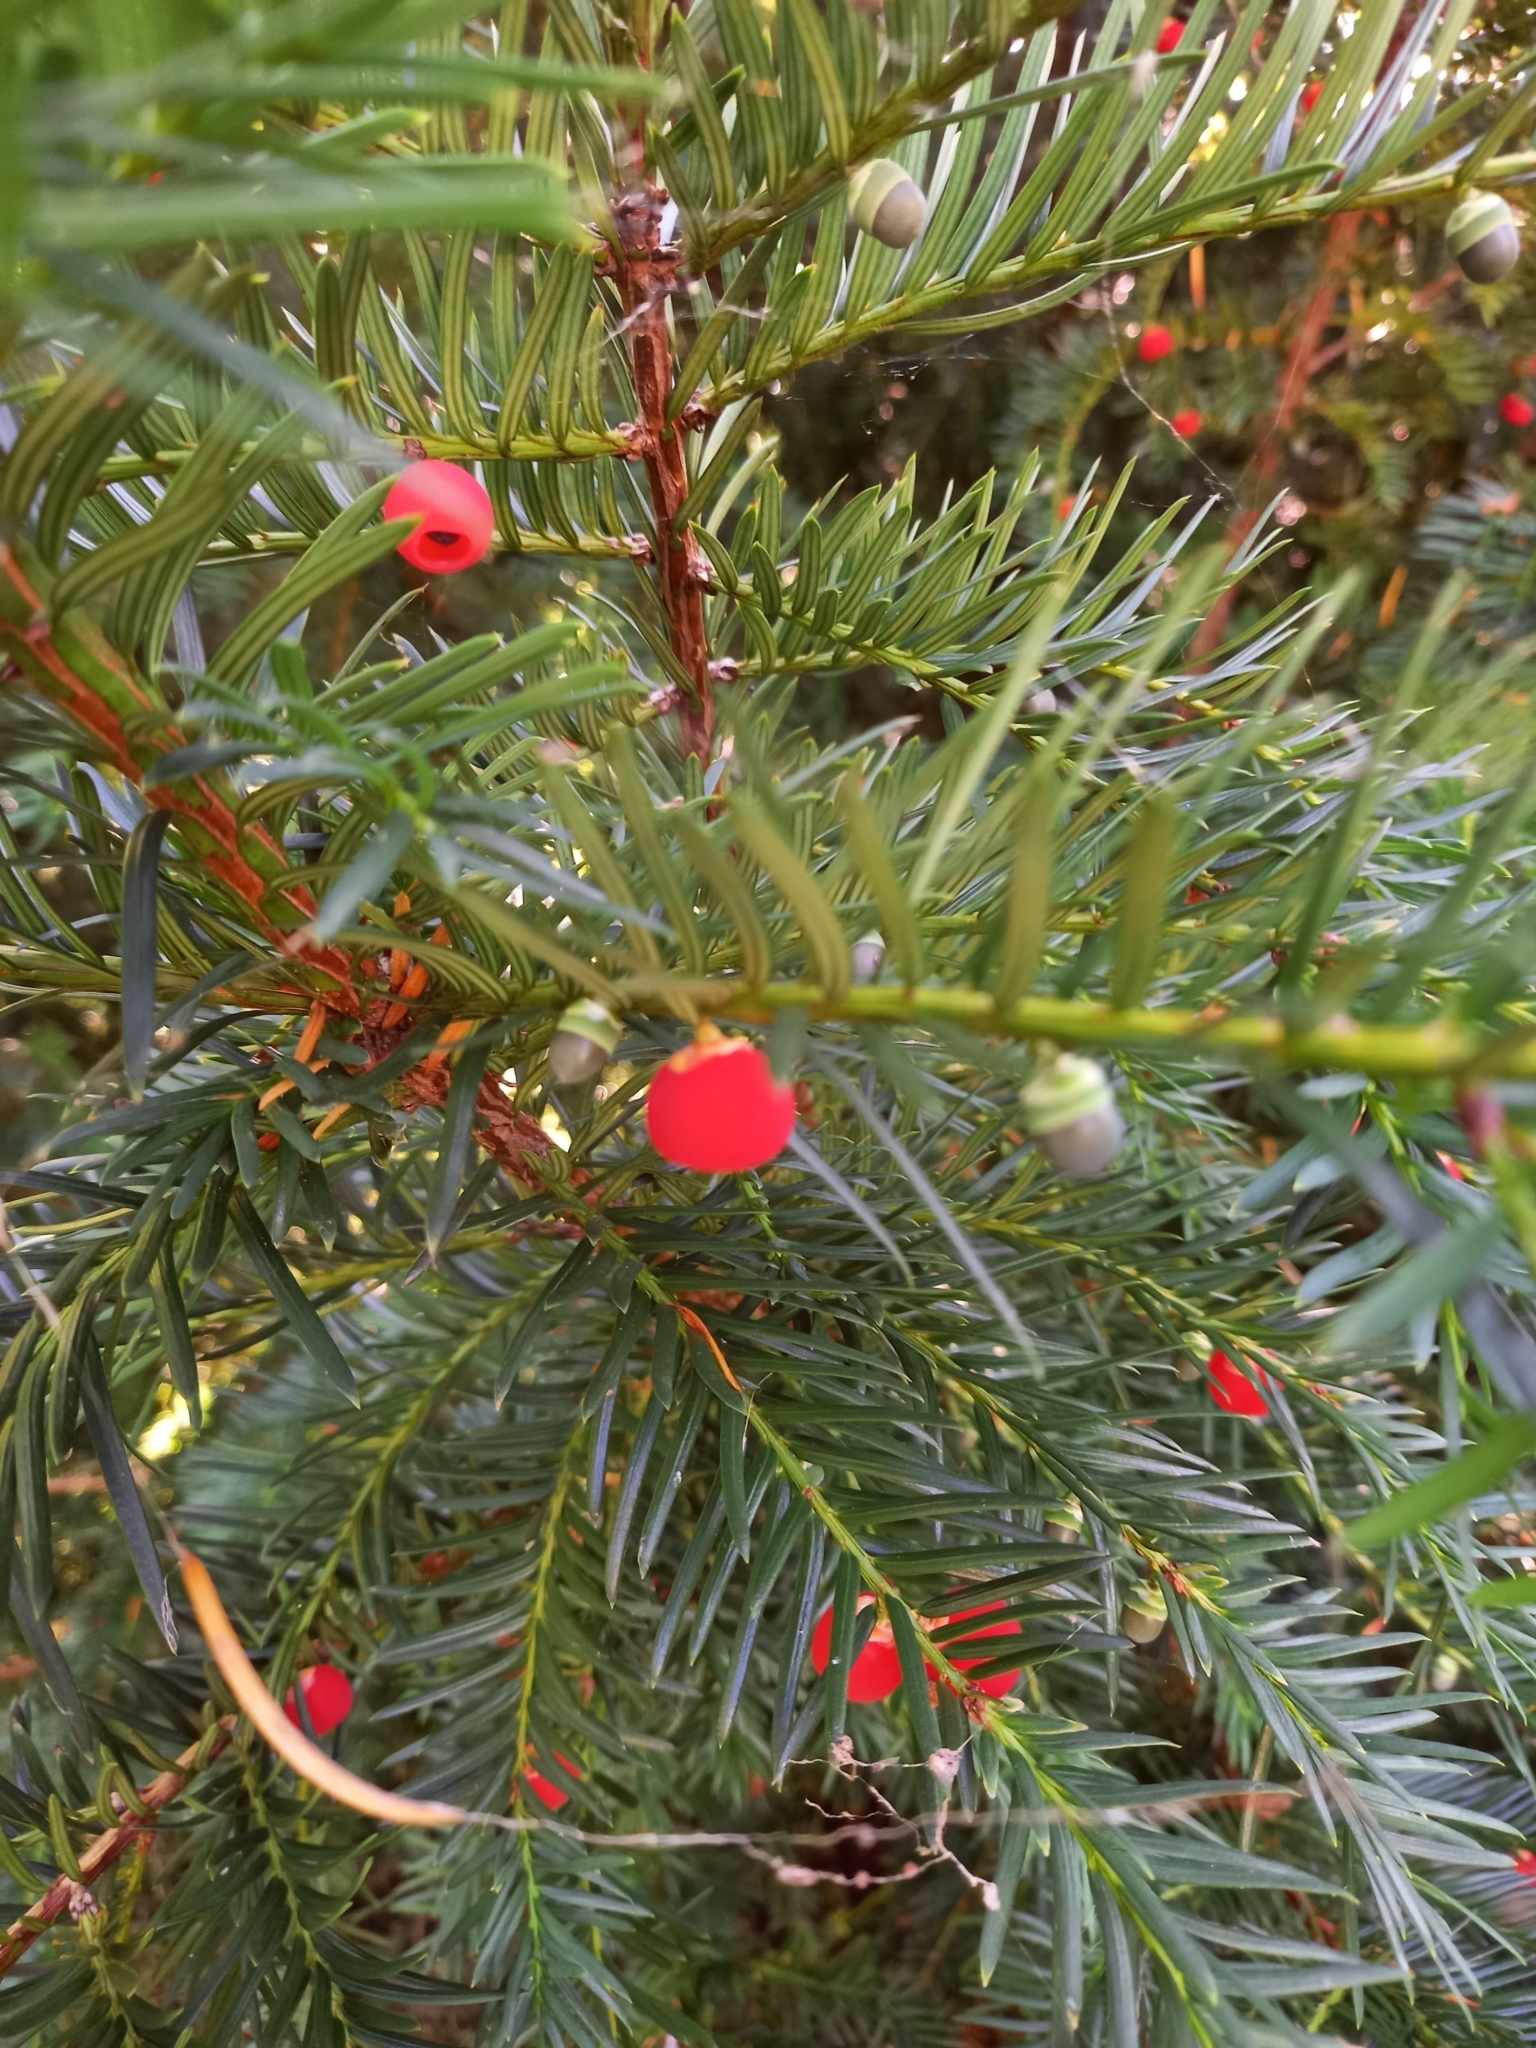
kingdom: Plantae
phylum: Tracheophyta
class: Pinopsida
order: Pinales
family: Taxaceae
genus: Taxus
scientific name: Taxus baccata
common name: Yew
